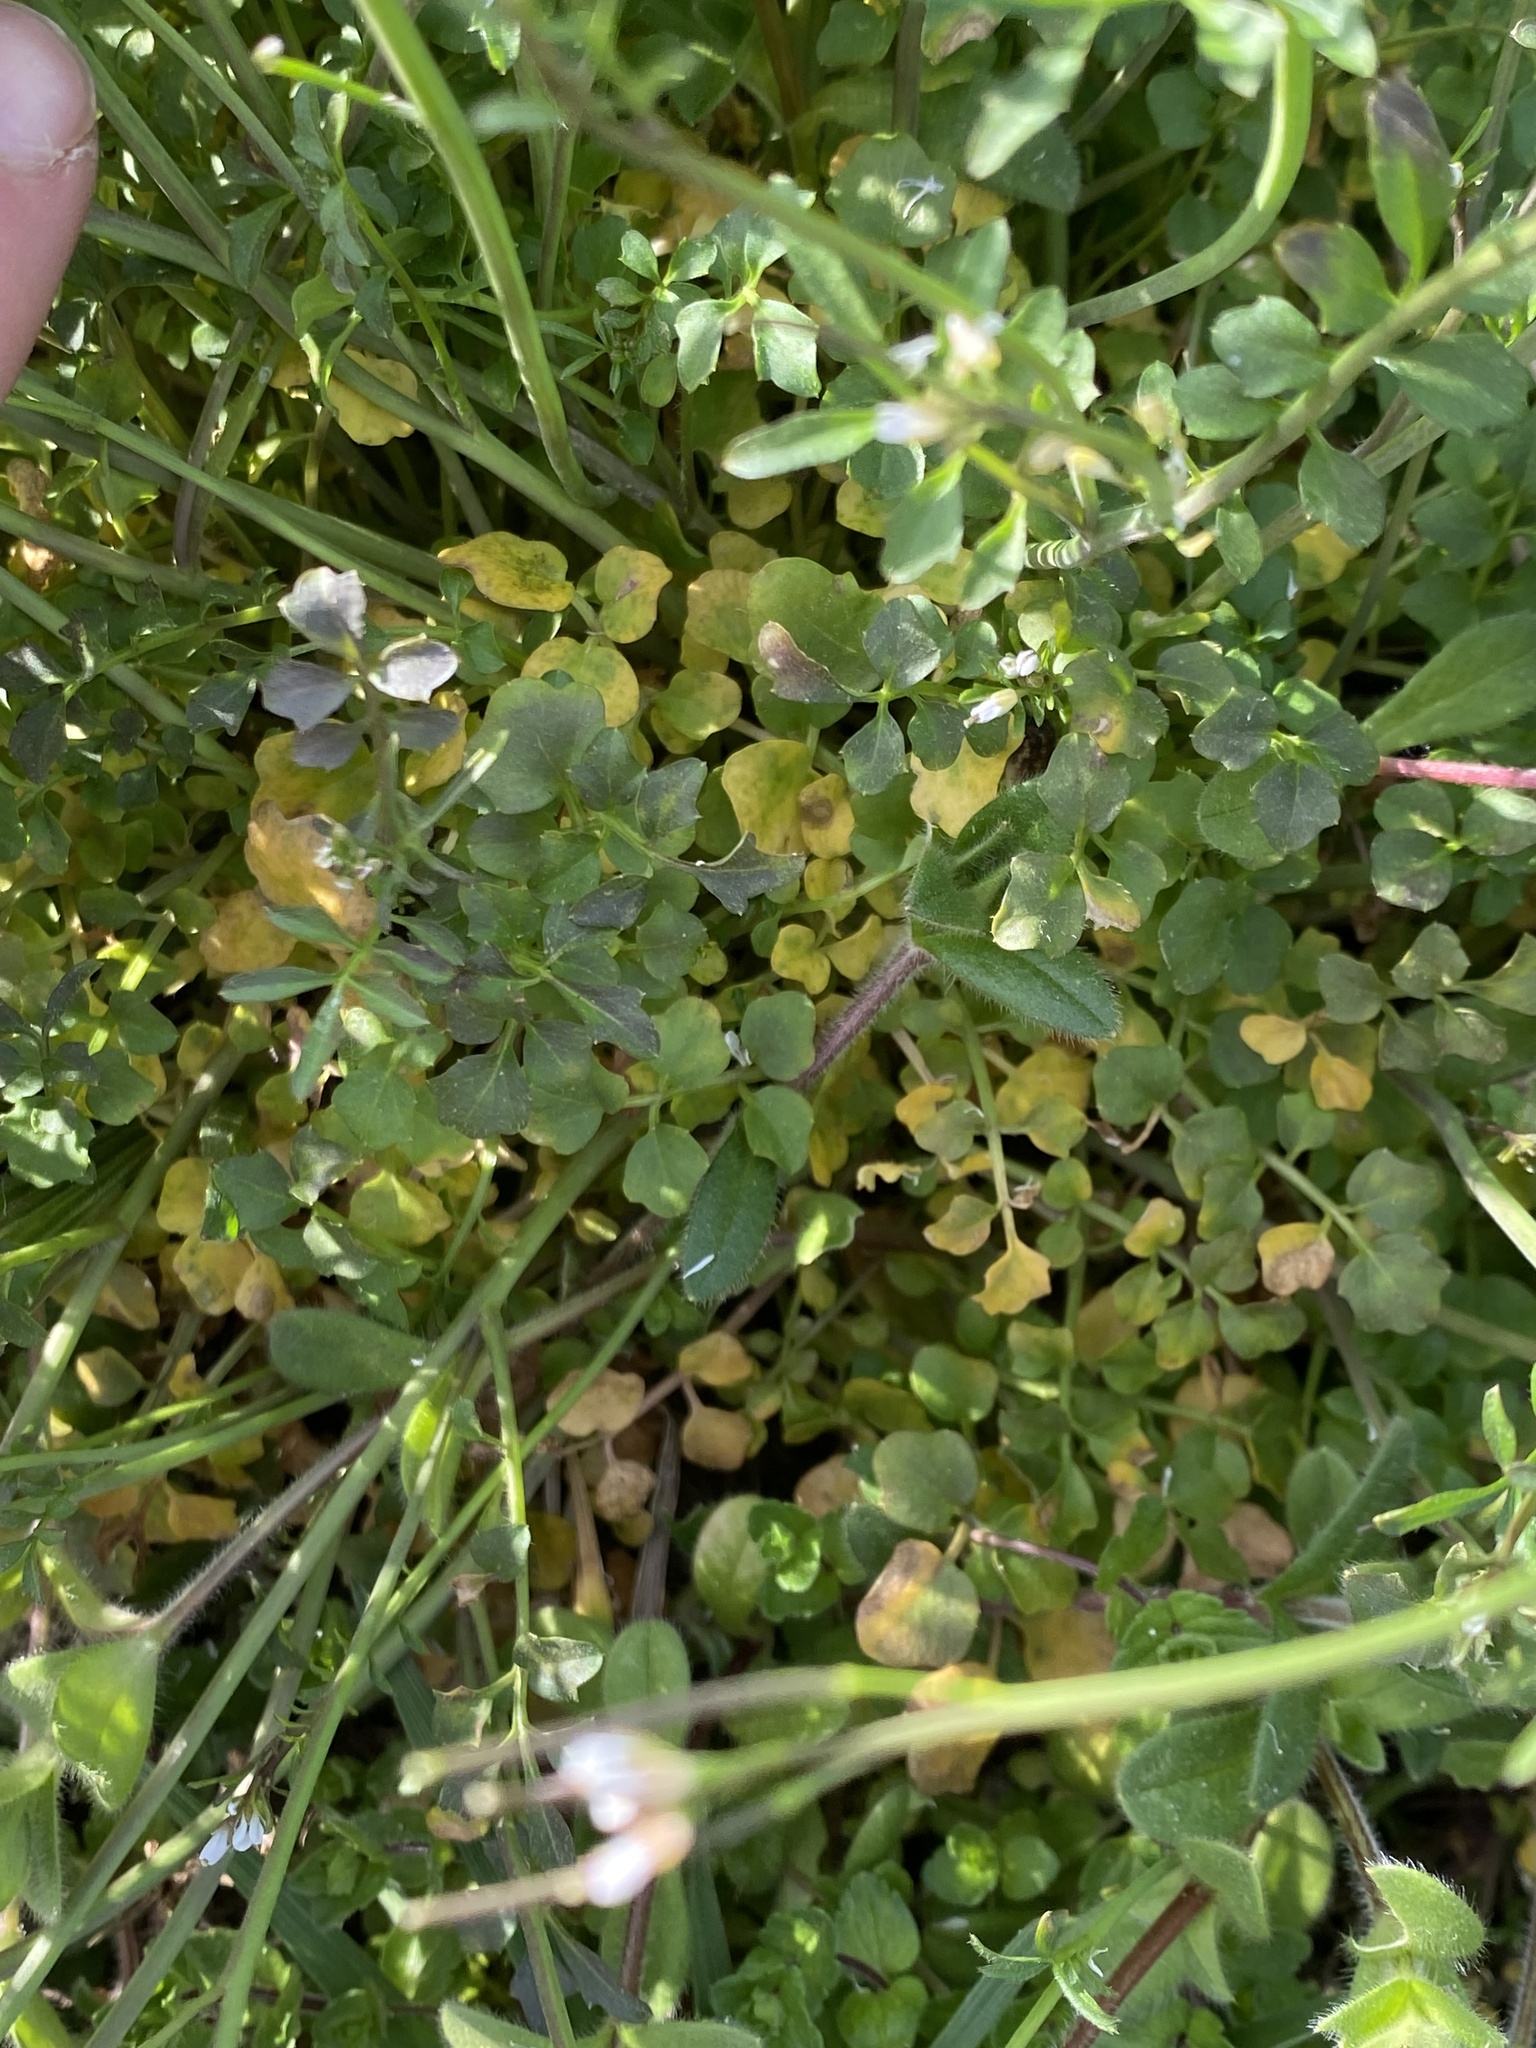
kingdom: Plantae
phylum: Tracheophyta
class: Magnoliopsida
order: Brassicales
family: Brassicaceae
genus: Cardamine
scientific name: Cardamine hirsuta
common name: Hairy bittercress
